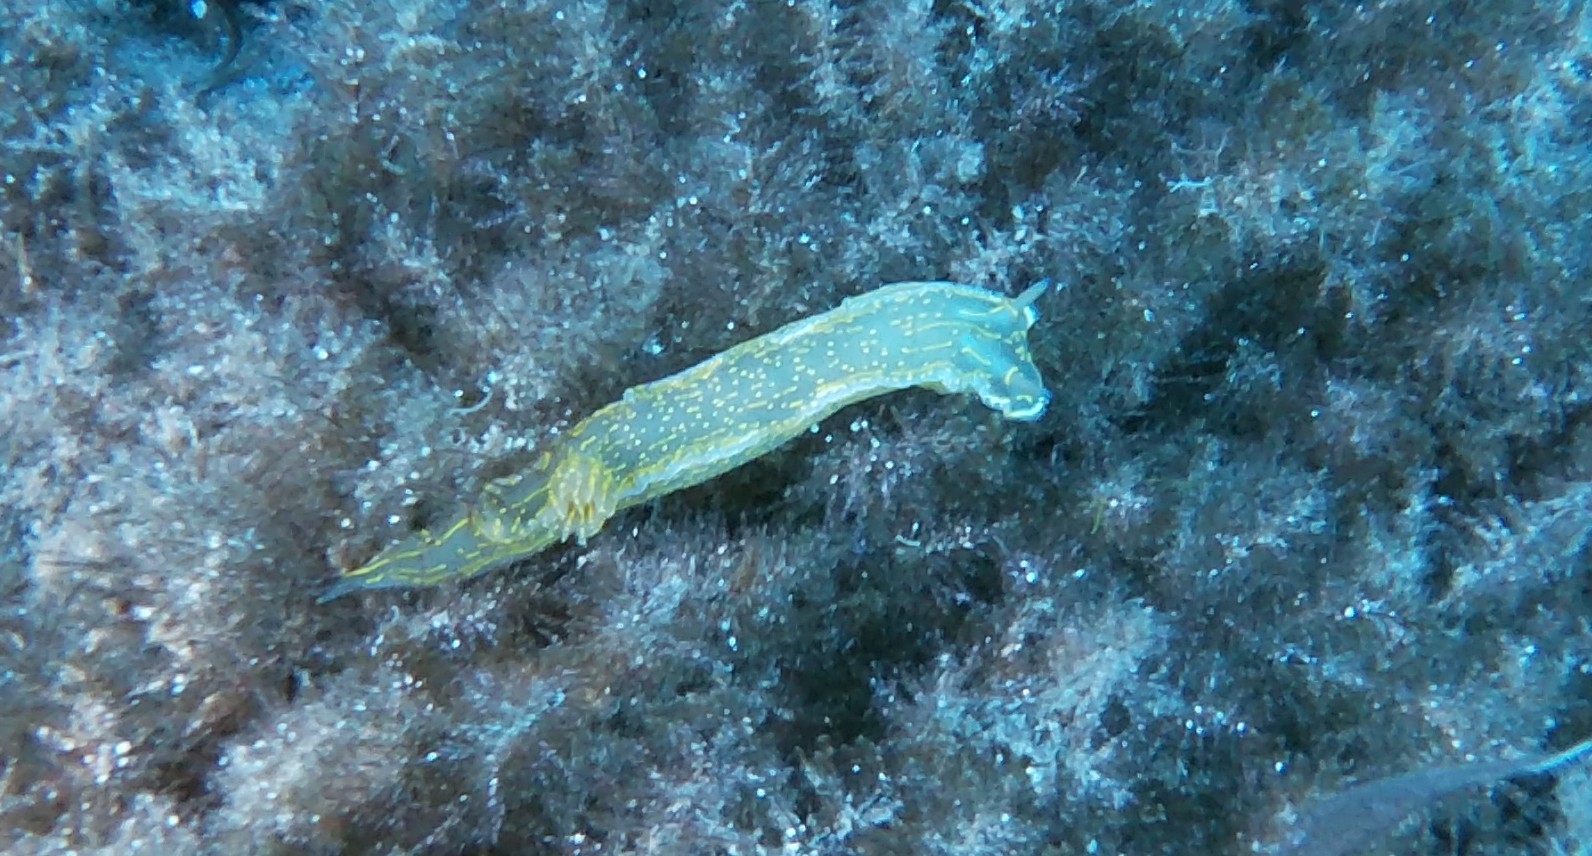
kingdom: Animalia
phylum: Mollusca
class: Gastropoda
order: Nudibranchia
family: Chromodorididae
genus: Felimare
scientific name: Felimare picta
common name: Giant doris
